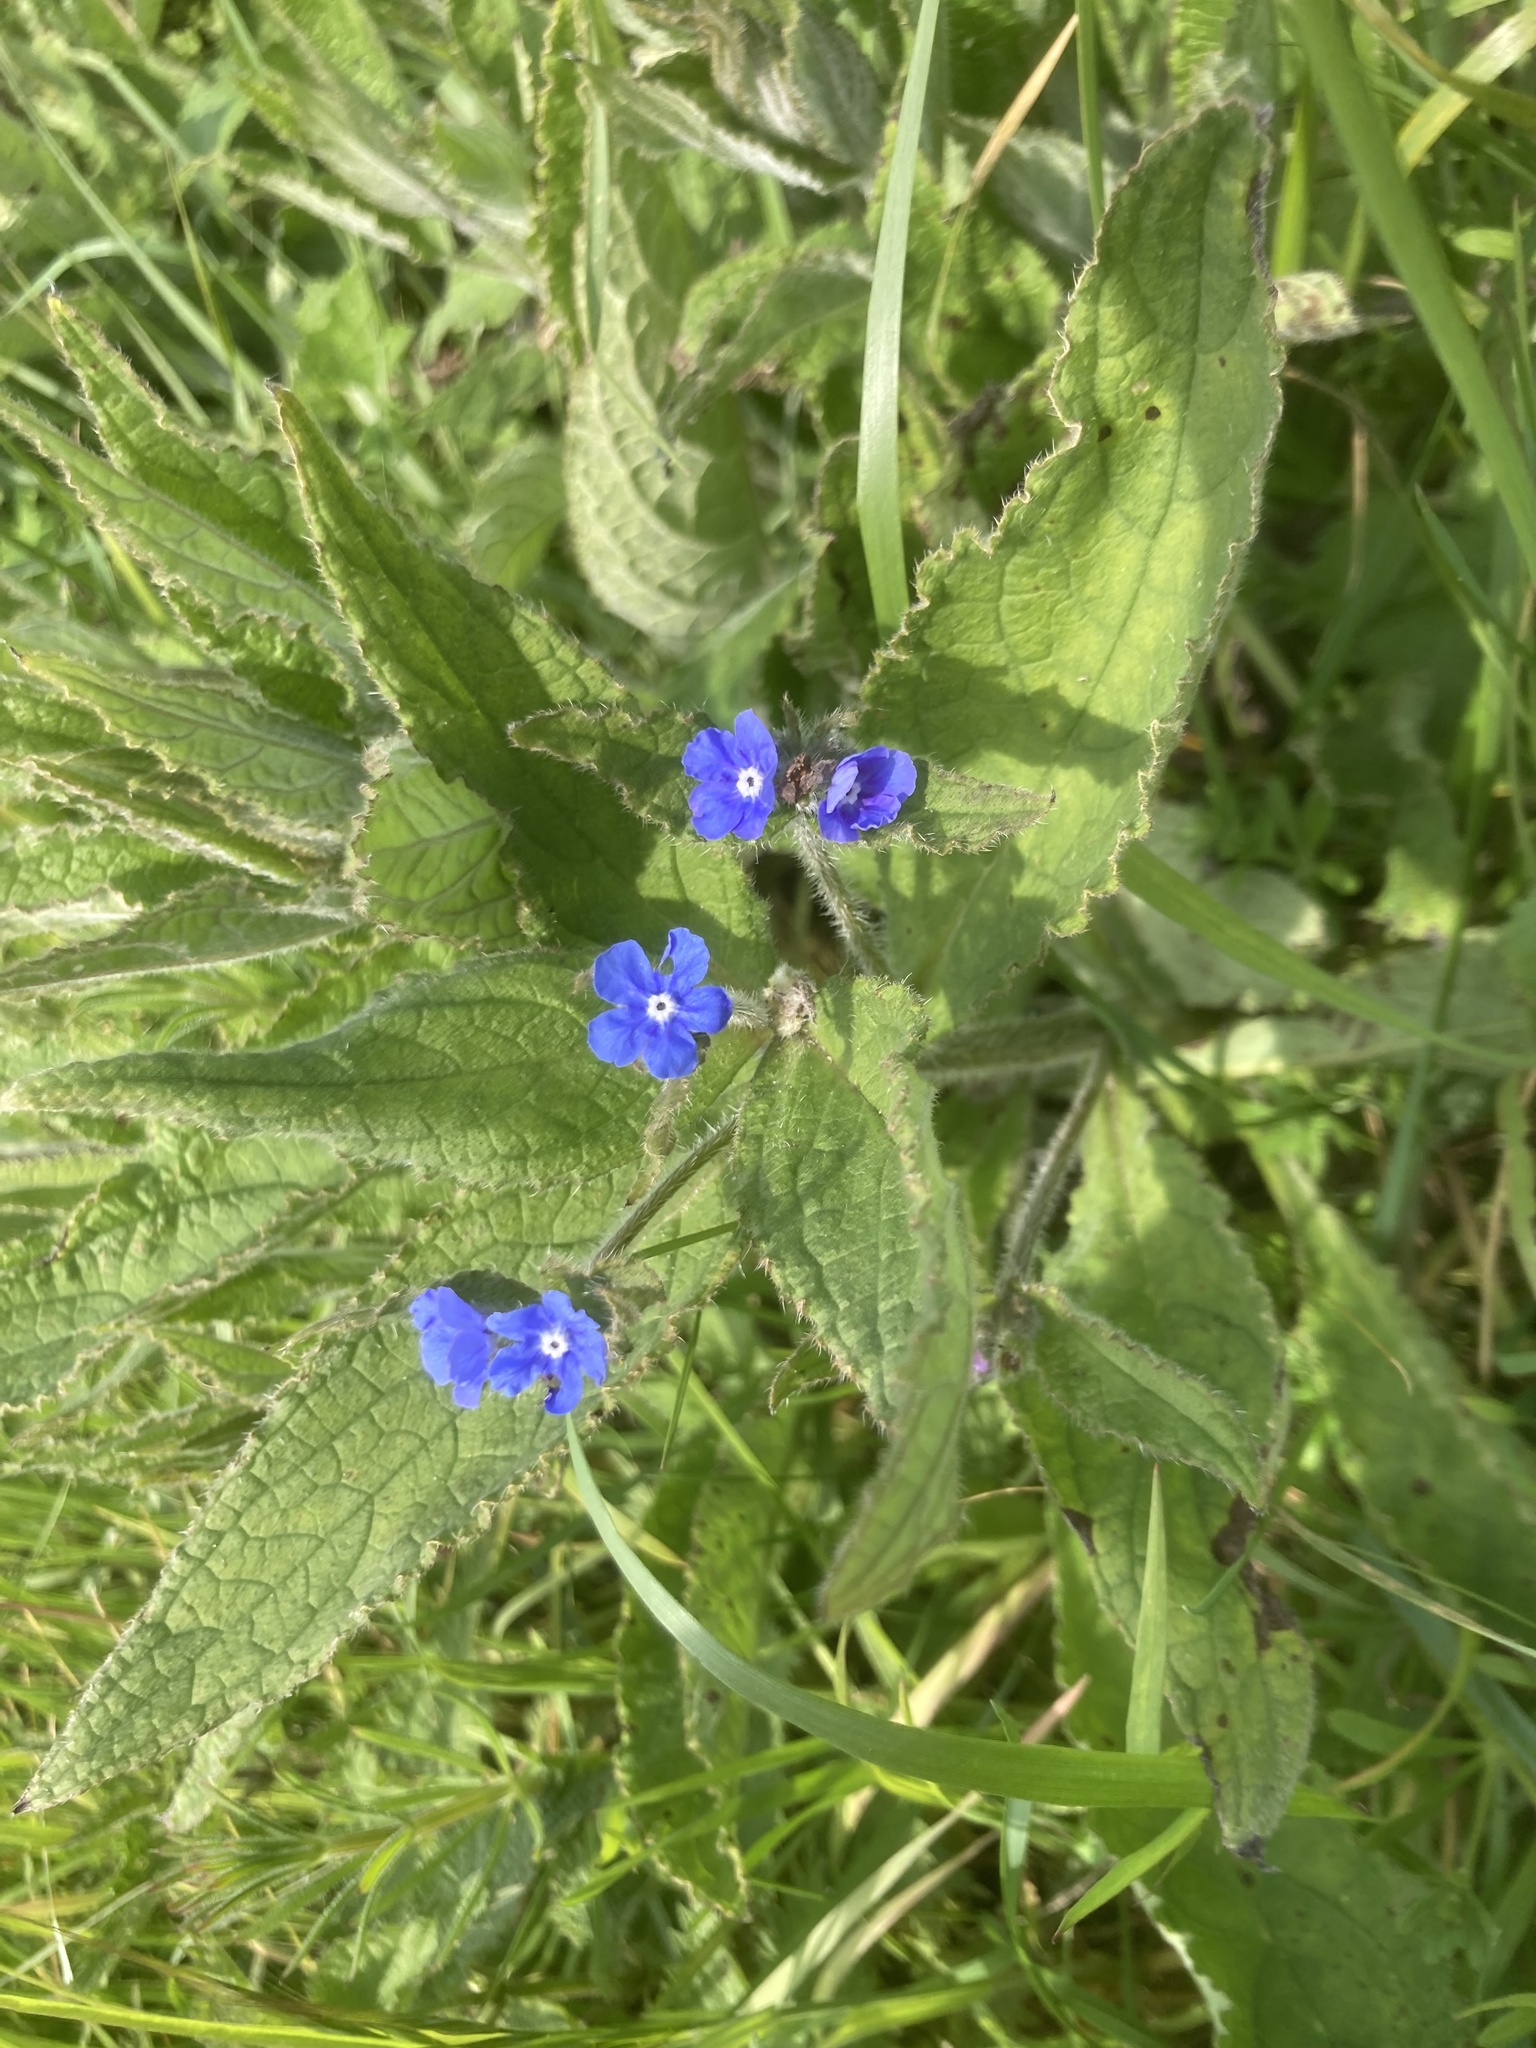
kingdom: Plantae
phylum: Tracheophyta
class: Magnoliopsida
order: Boraginales
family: Boraginaceae
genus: Pentaglottis
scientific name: Pentaglottis sempervirens
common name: Green alkanet
